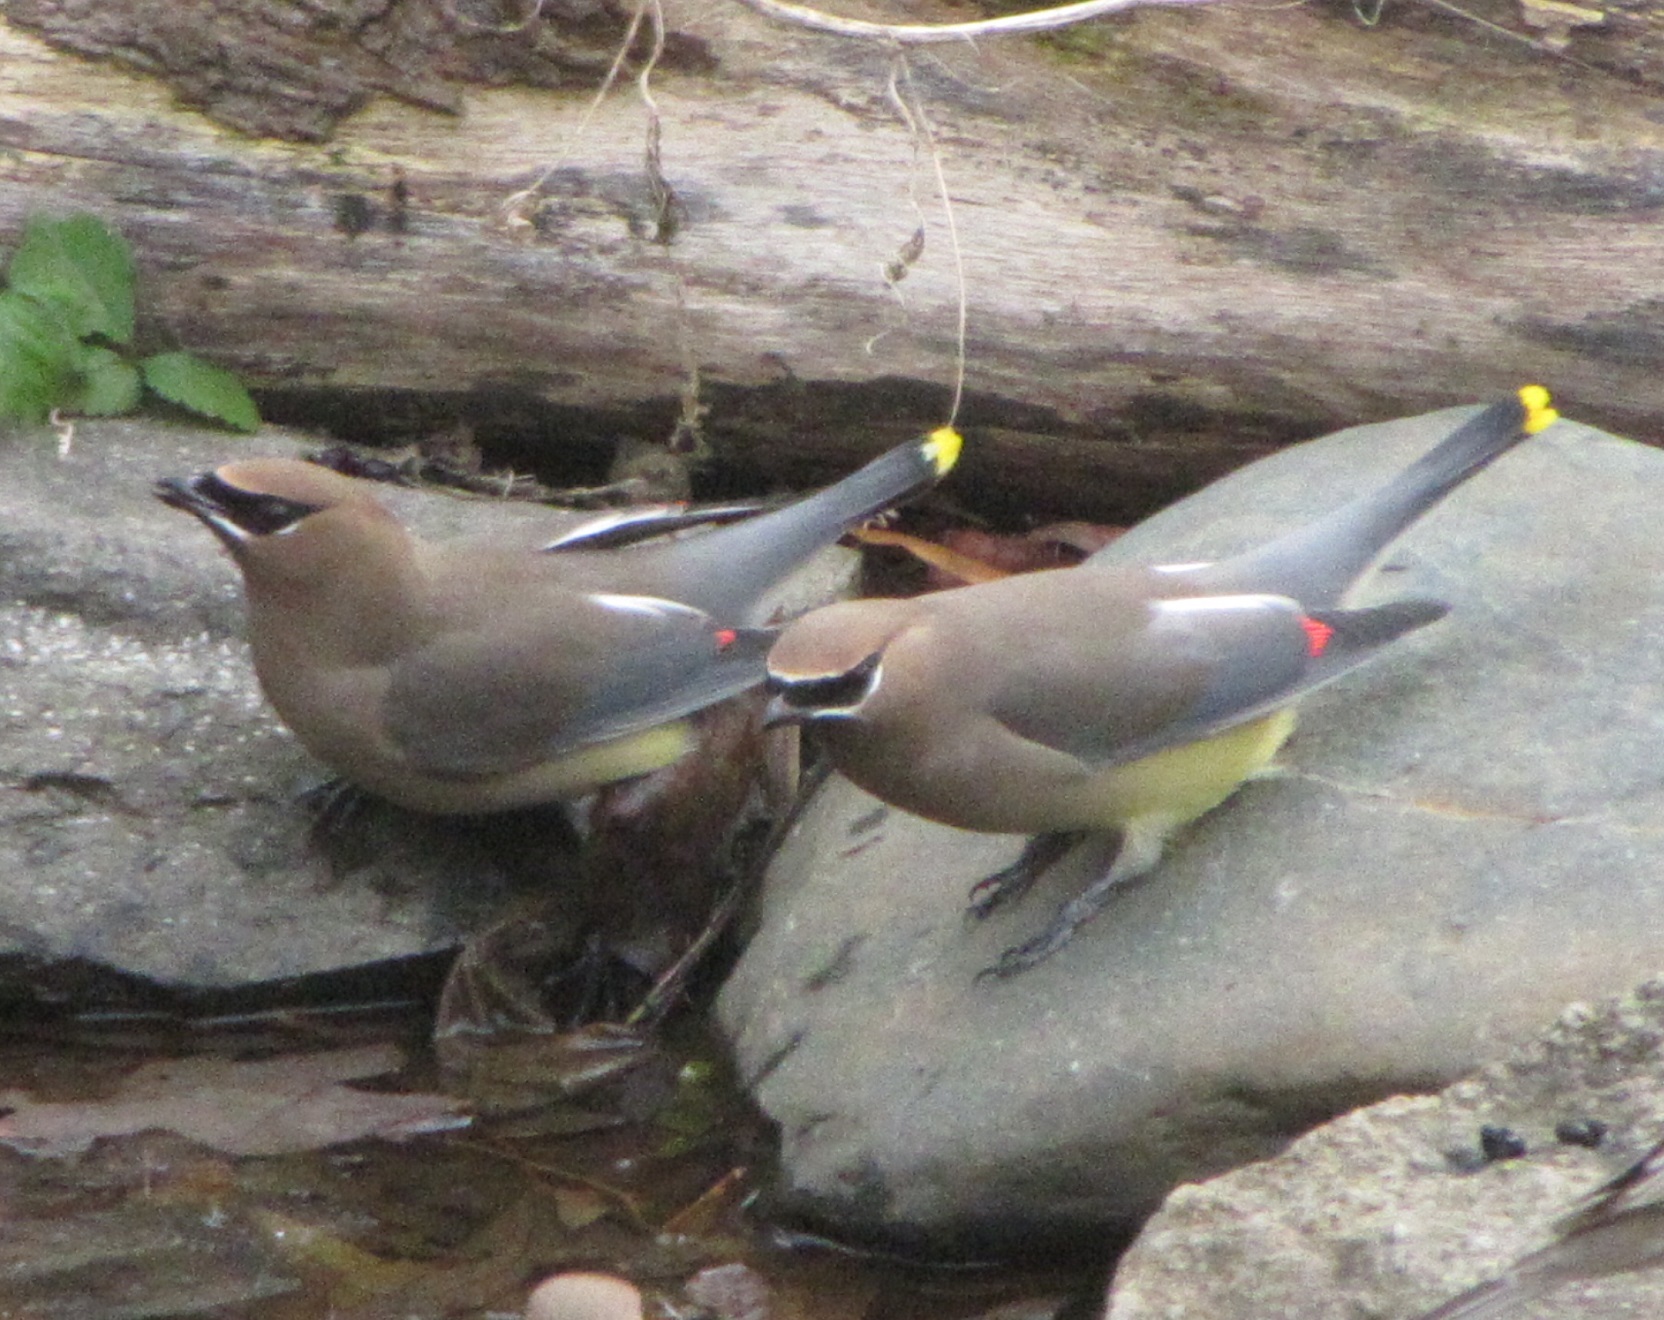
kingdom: Animalia
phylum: Chordata
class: Aves
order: Passeriformes
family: Bombycillidae
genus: Bombycilla
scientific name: Bombycilla cedrorum
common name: Cedar waxwing
